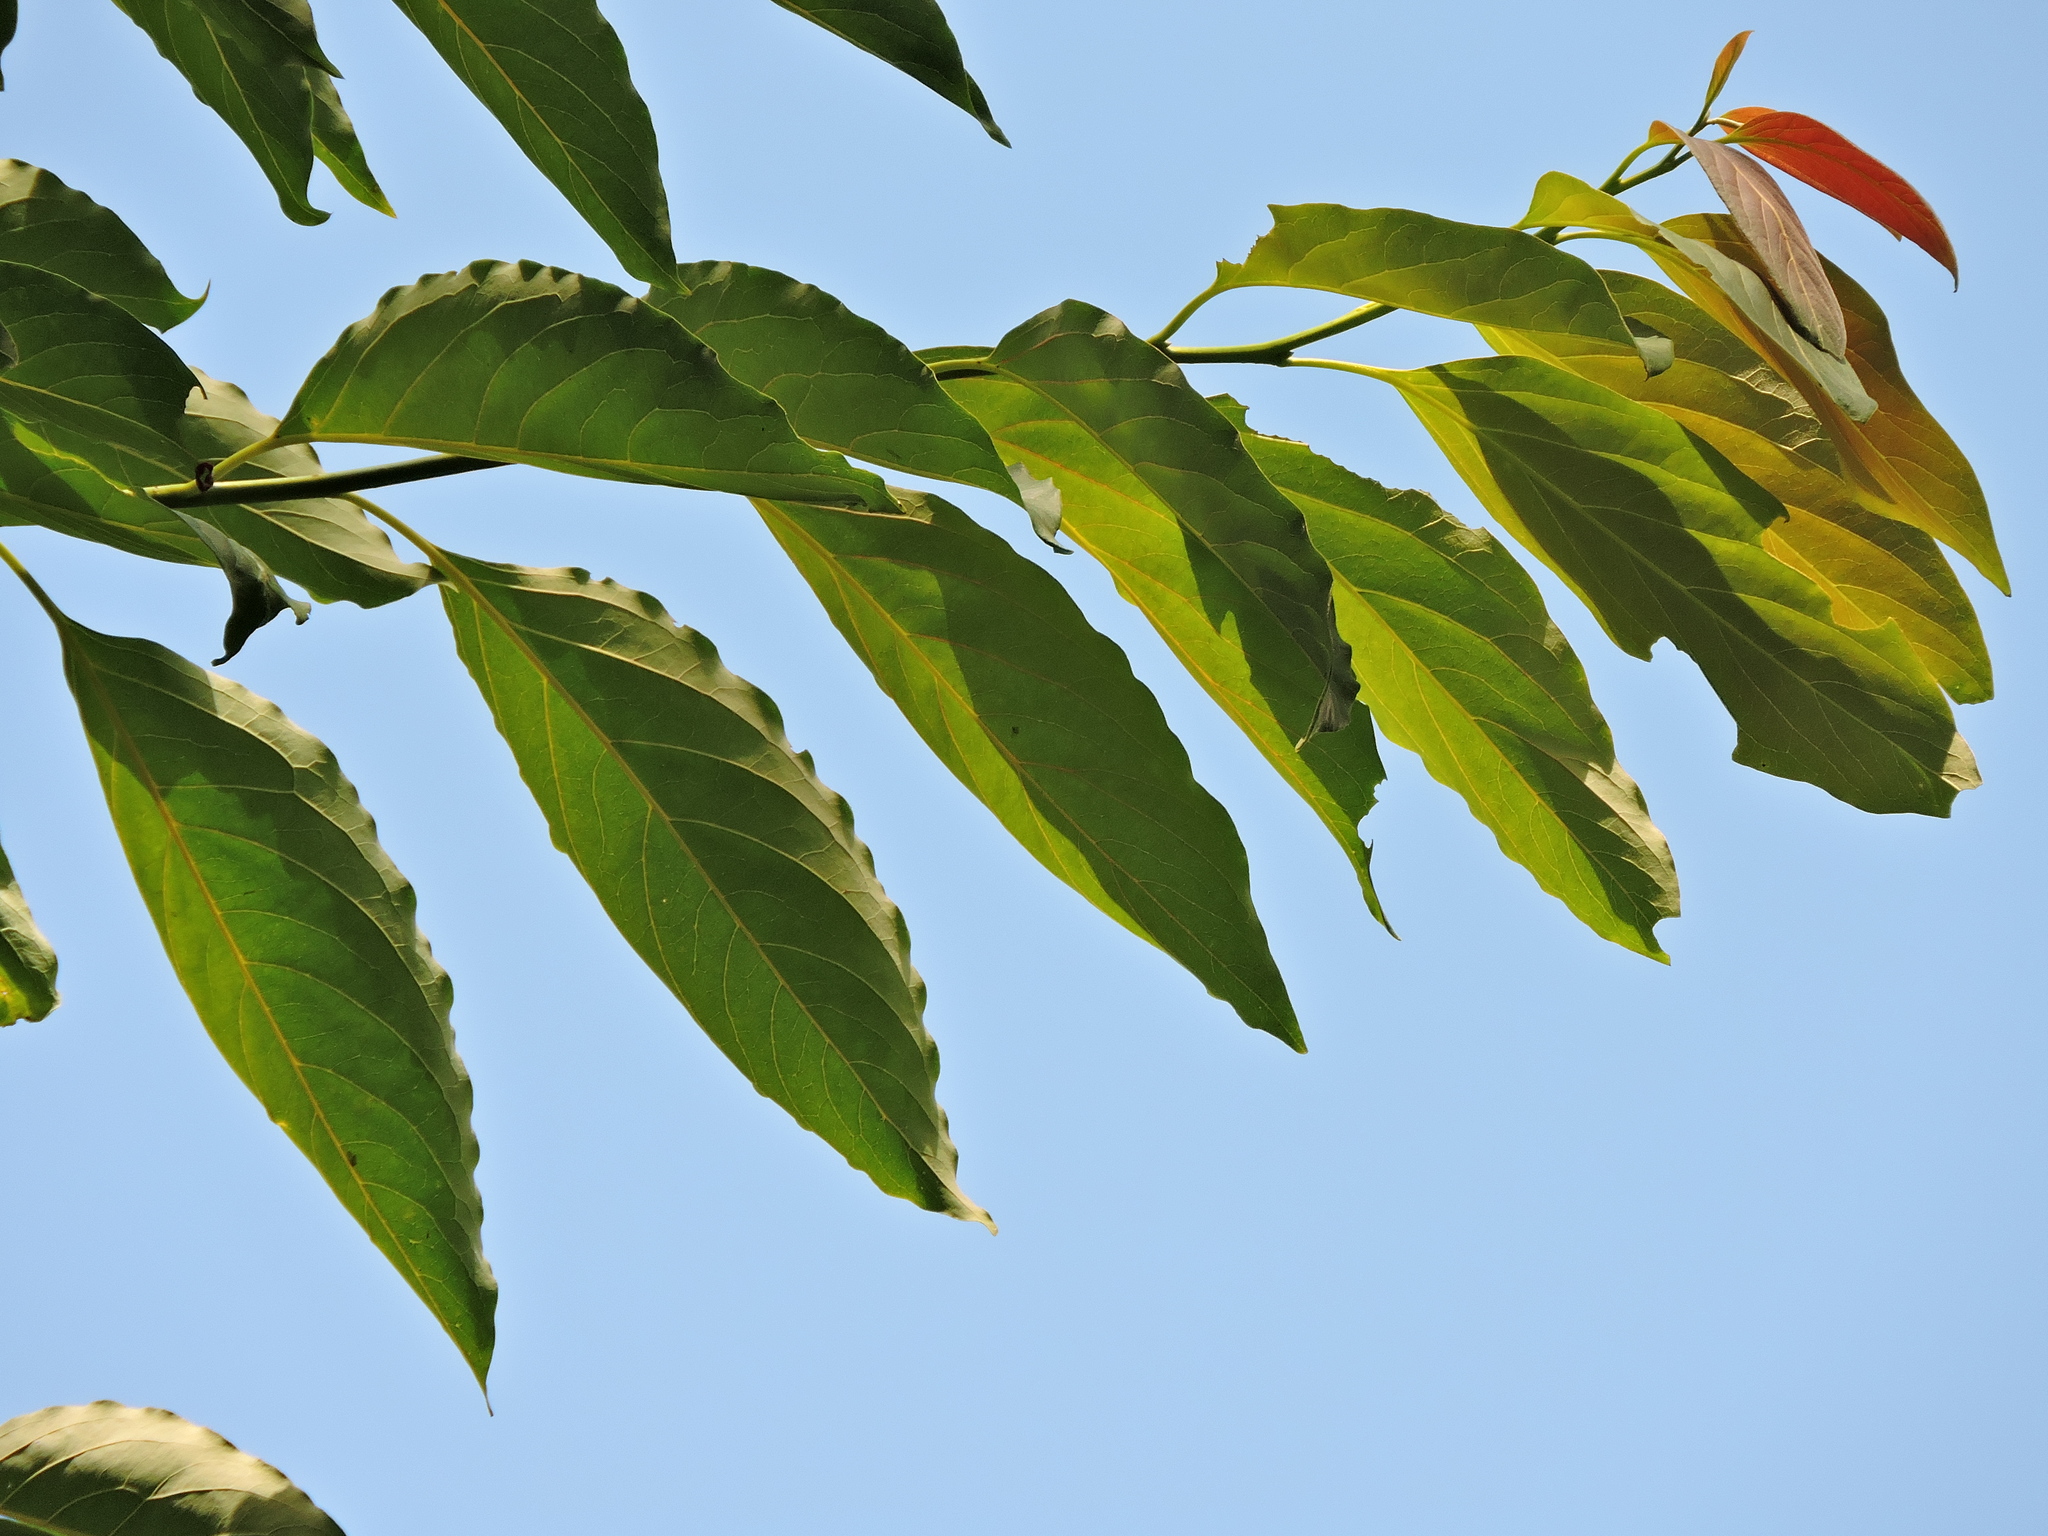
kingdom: Plantae
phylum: Tracheophyta
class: Magnoliopsida
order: Ericales
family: Ebenaceae
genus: Diospyros
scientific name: Diospyros japonica
